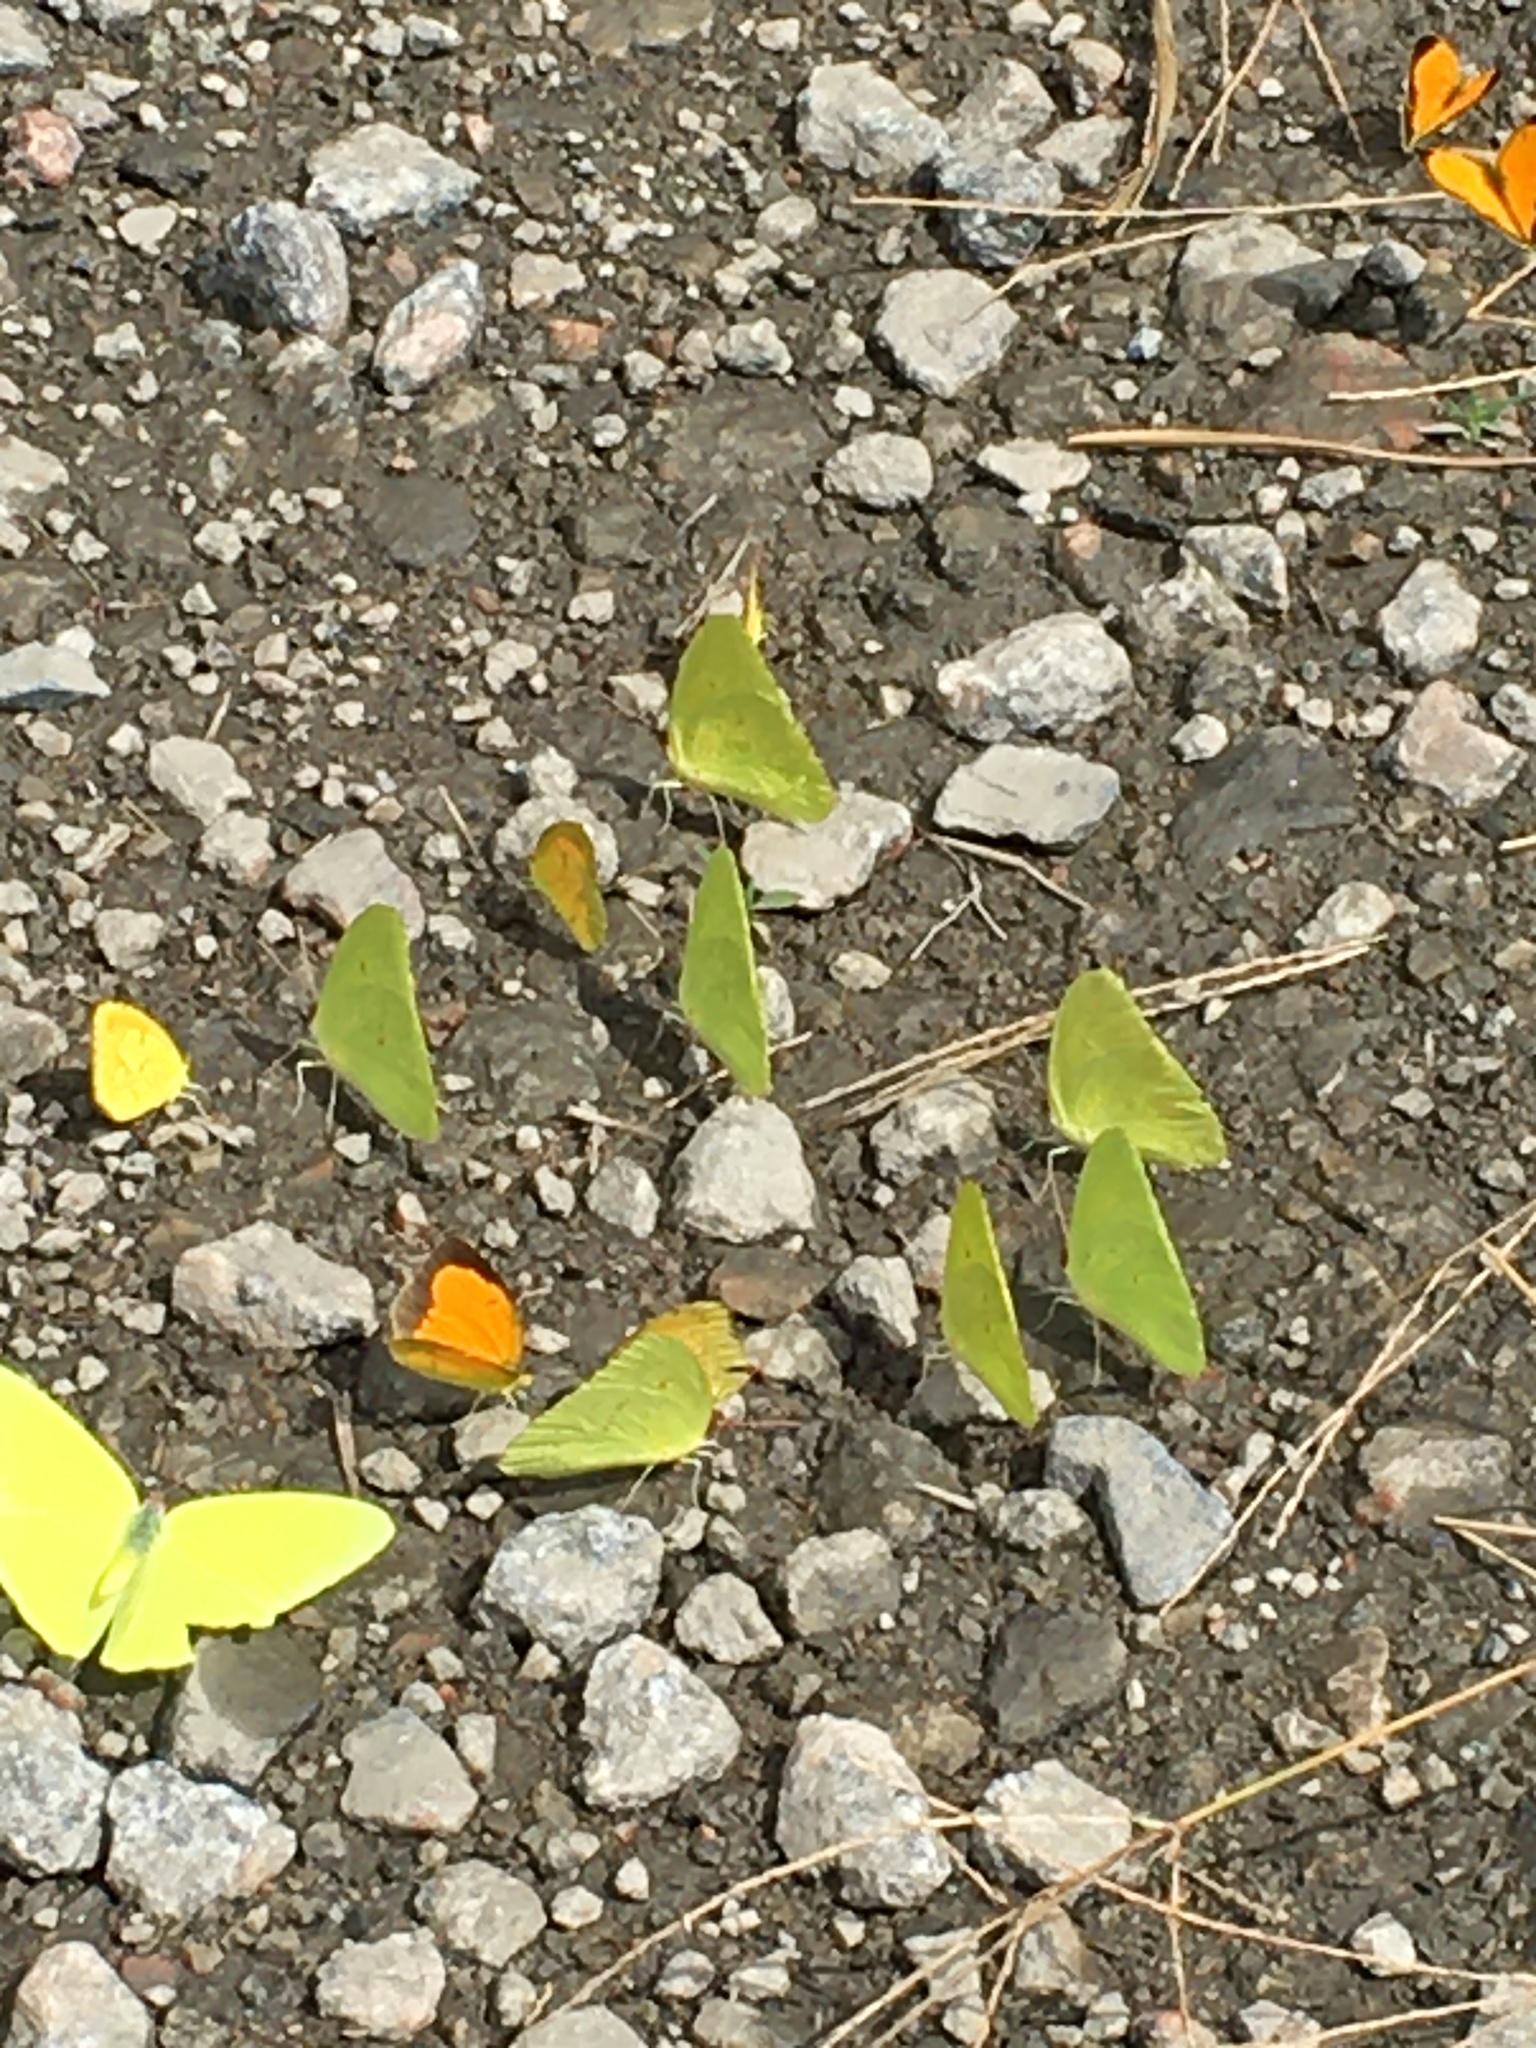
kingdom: Animalia
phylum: Arthropoda
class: Insecta
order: Lepidoptera
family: Pieridae
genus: Phoebis
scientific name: Phoebis sennae
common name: Cloudless sulphur
